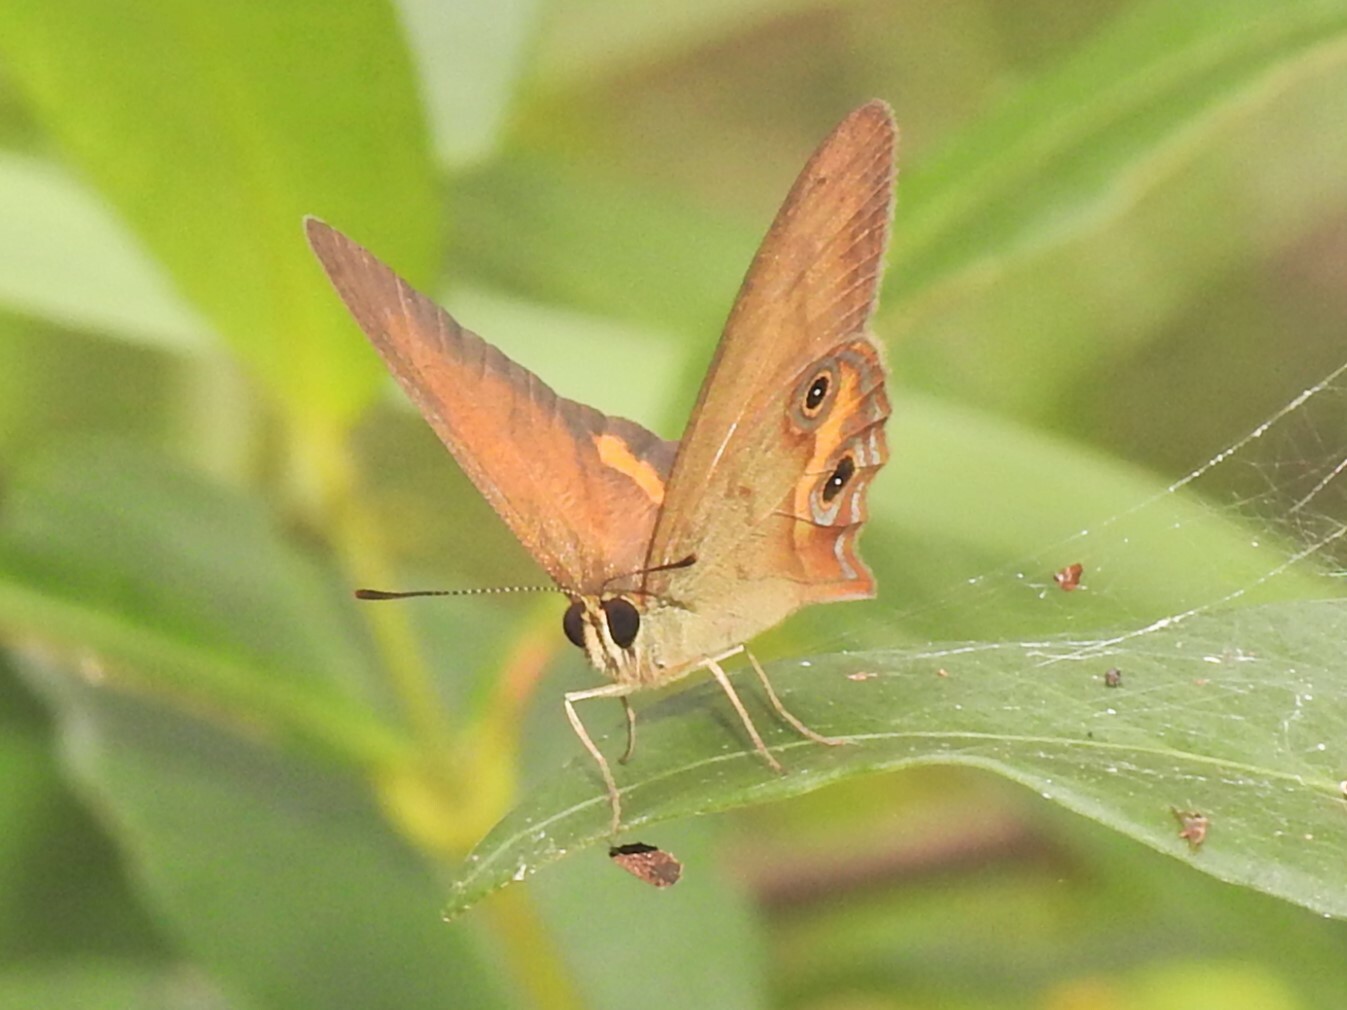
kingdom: Animalia
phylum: Arthropoda
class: Insecta
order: Lepidoptera
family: Nymphalidae
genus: Hypocysta
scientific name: Hypocysta metirius
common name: Brown ringlet
